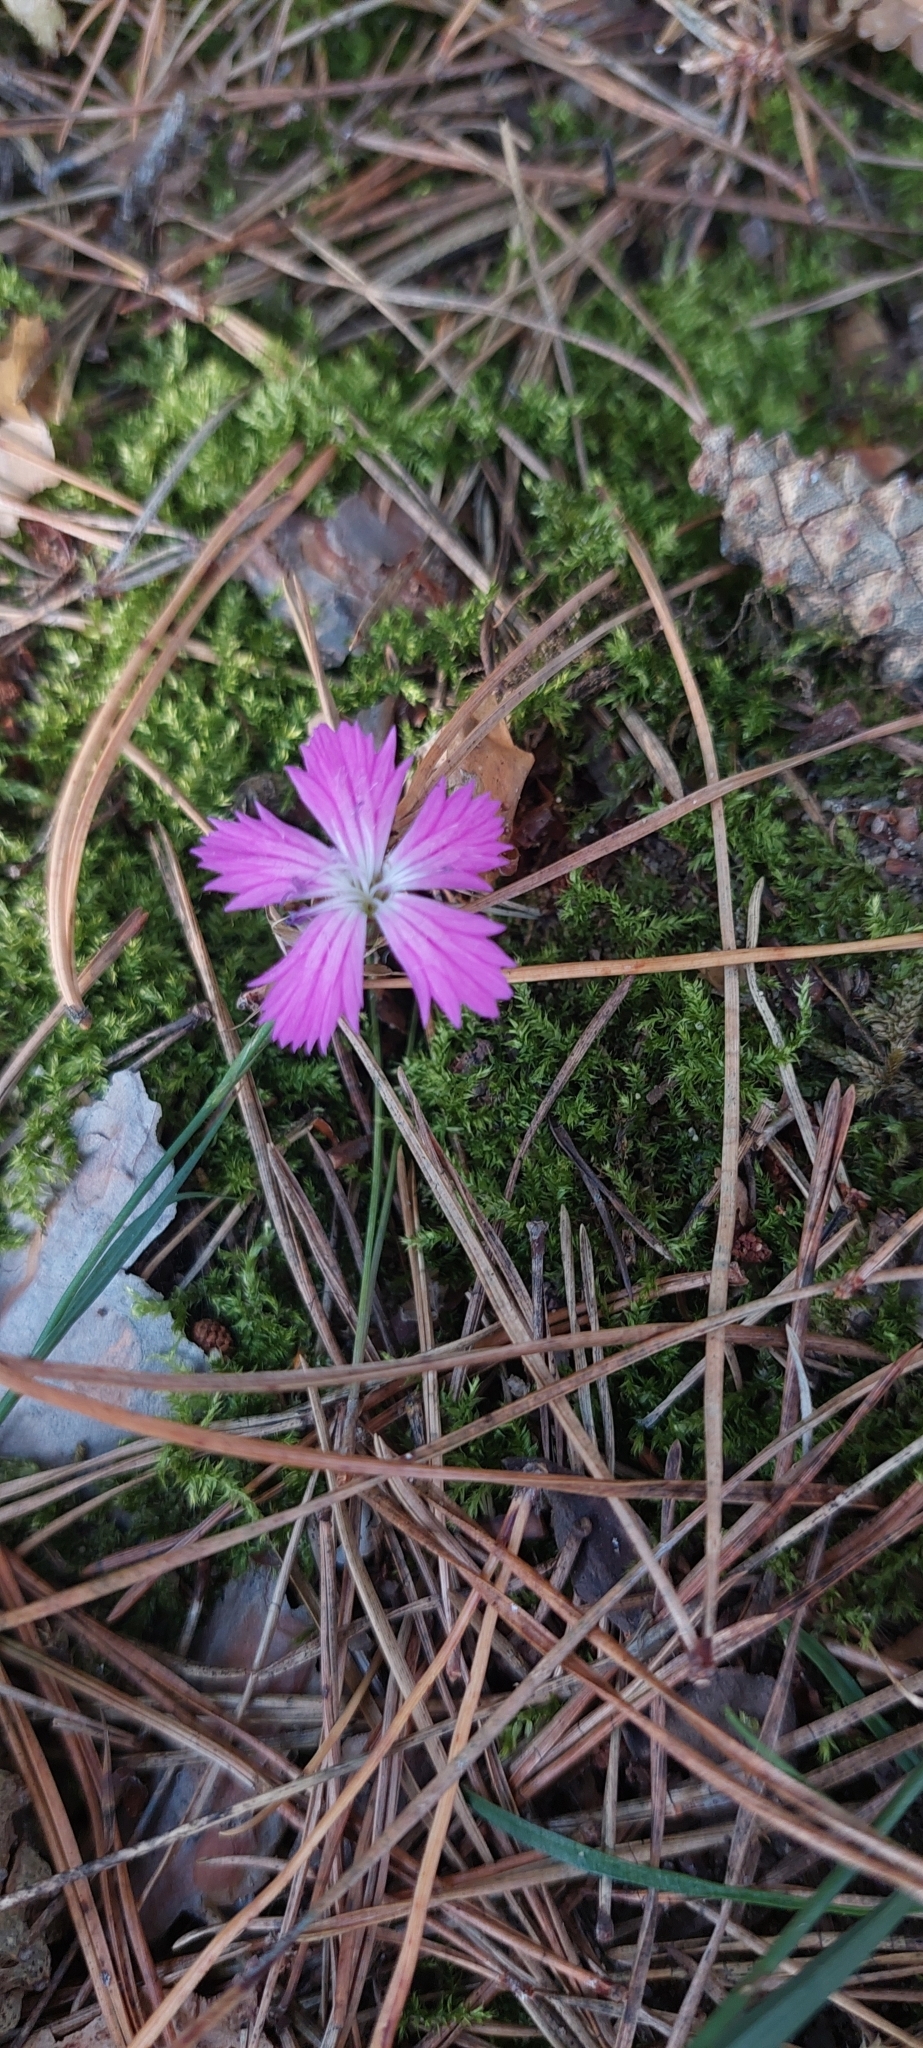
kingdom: Plantae
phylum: Tracheophyta
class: Magnoliopsida
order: Caryophyllales
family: Caryophyllaceae
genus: Dianthus
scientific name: Dianthus carthusianorum
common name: Carthusian pink
